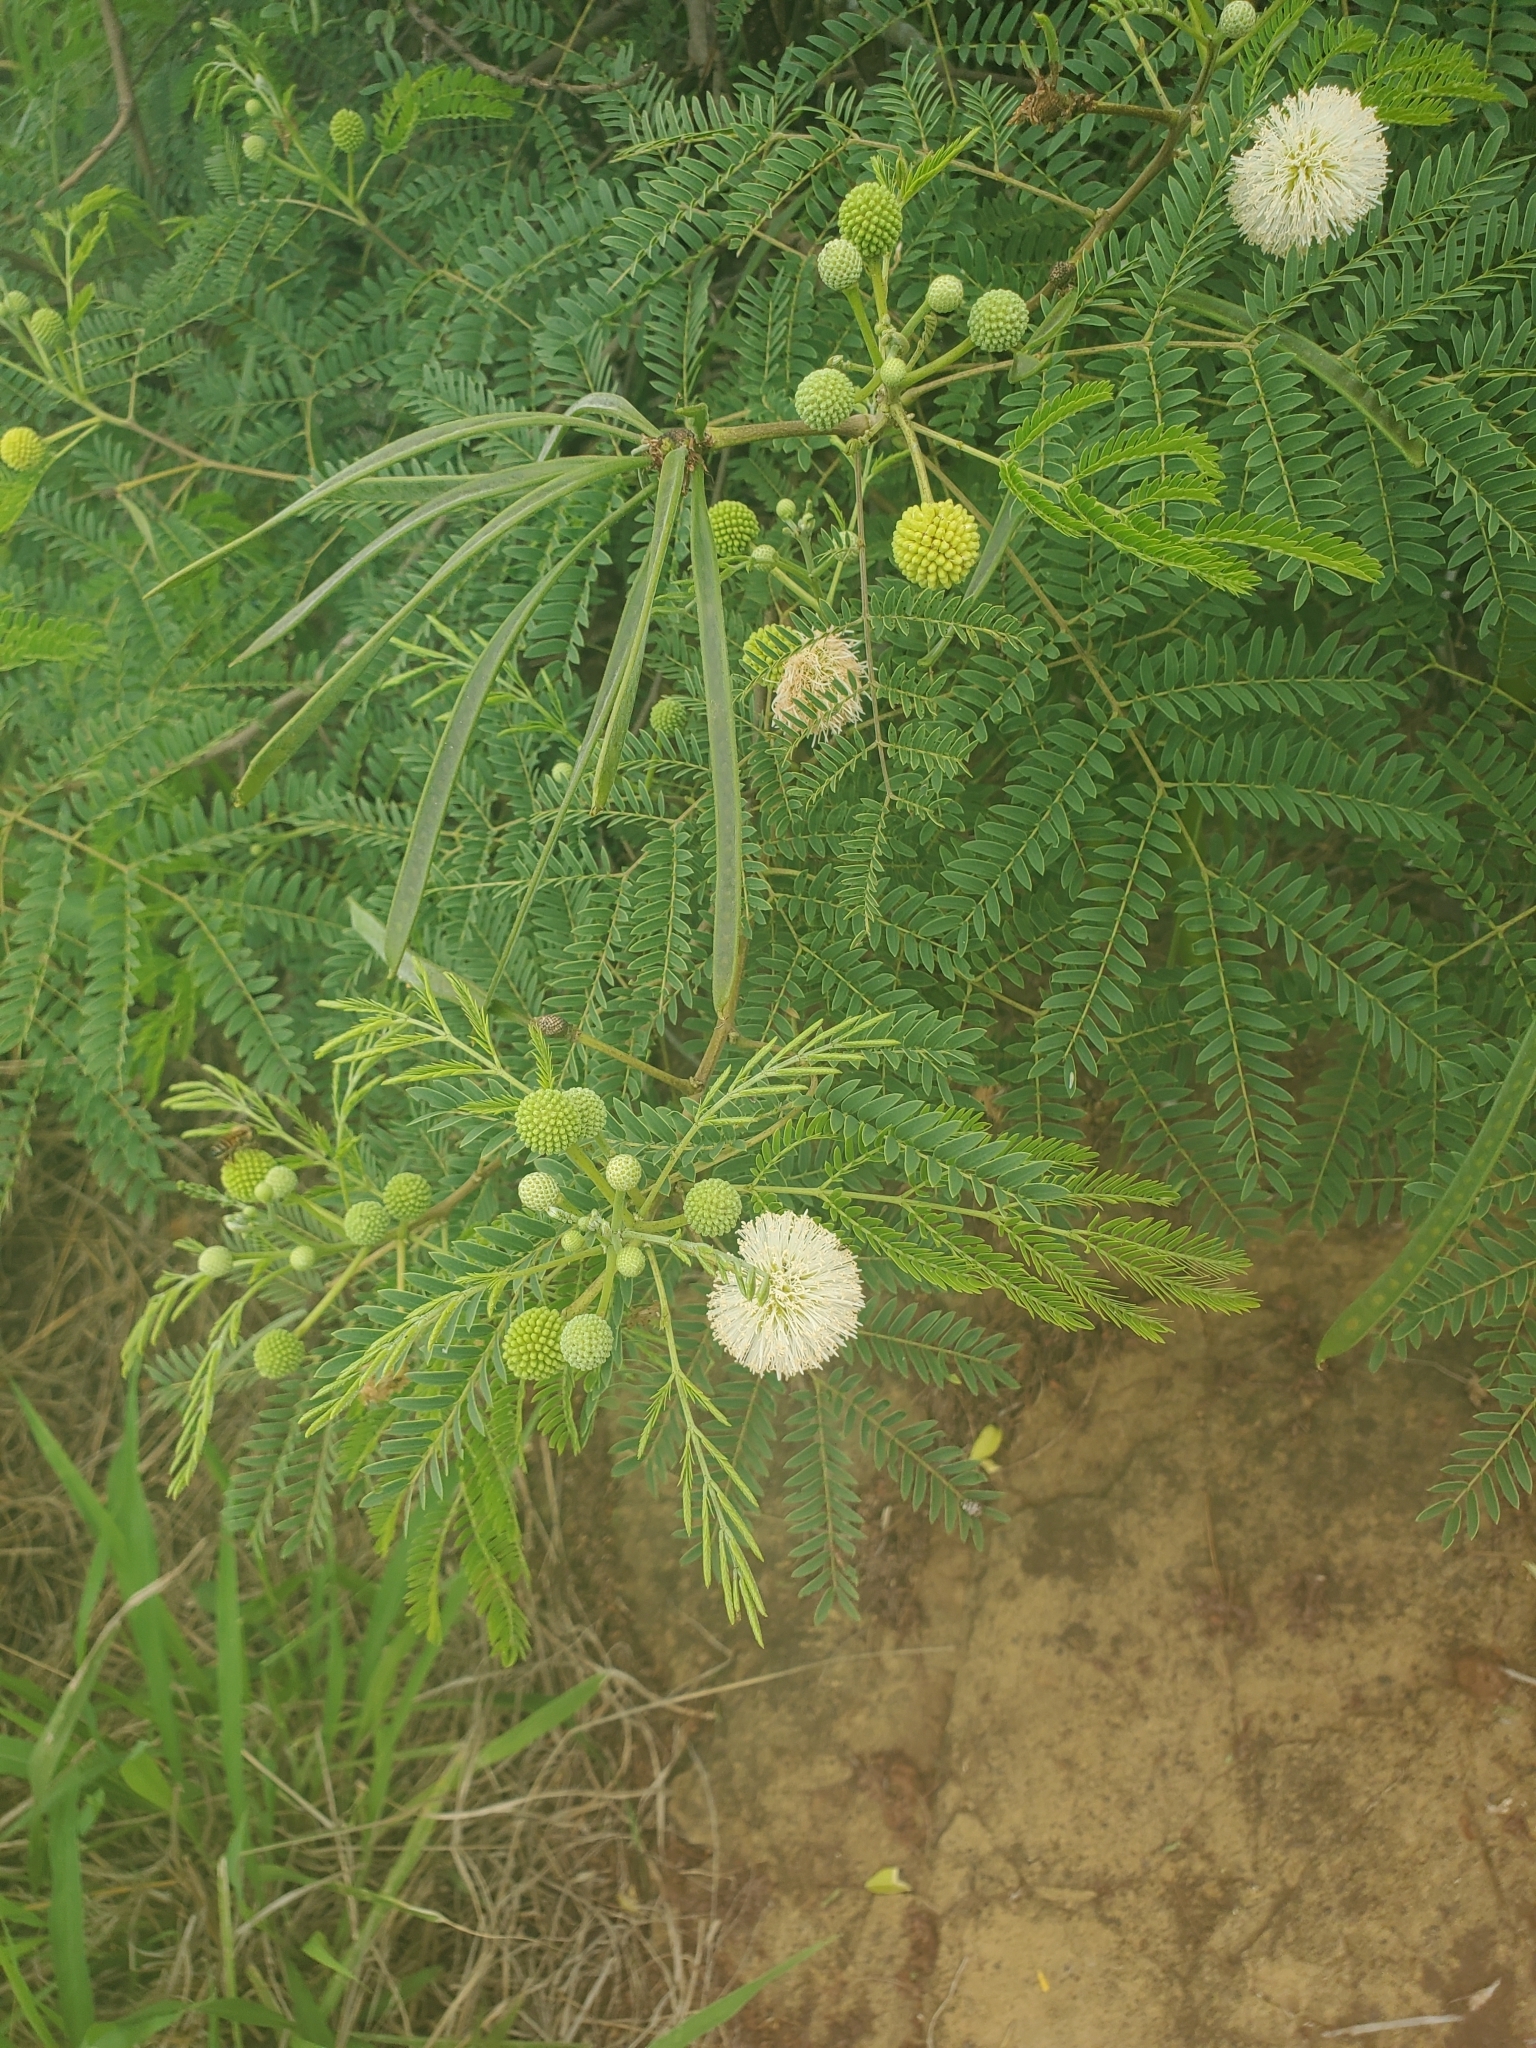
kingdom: Plantae
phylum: Tracheophyta
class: Magnoliopsida
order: Fabales
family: Fabaceae
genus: Leucaena
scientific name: Leucaena leucocephala
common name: White leadtree
